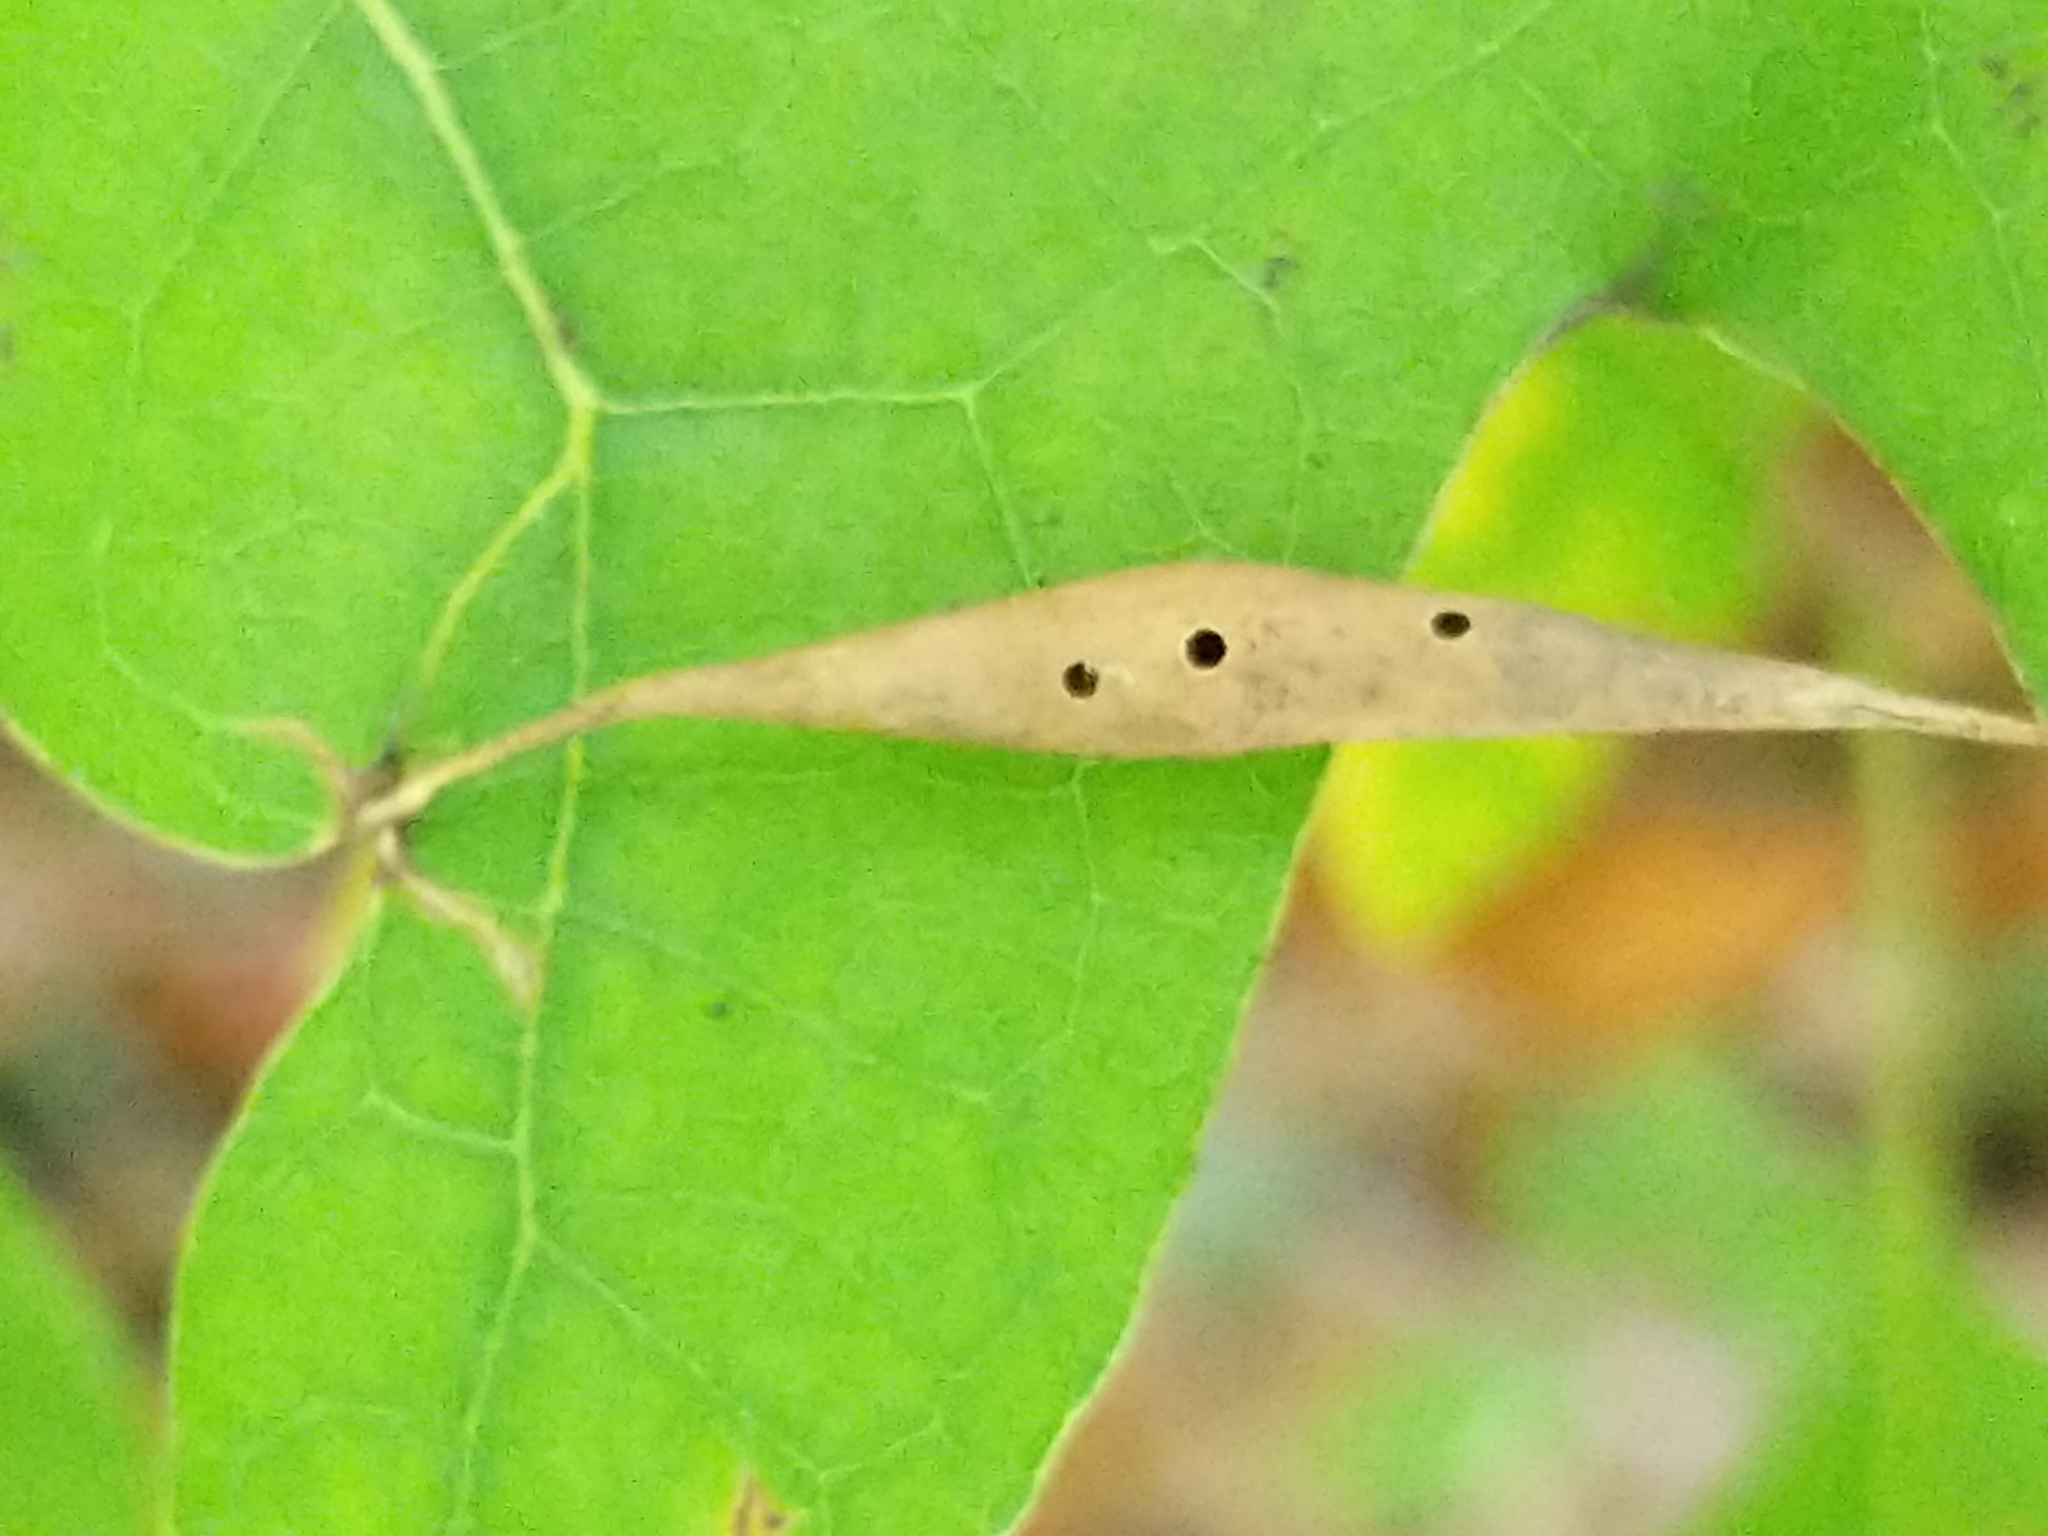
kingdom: Animalia
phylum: Arthropoda
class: Insecta
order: Hymenoptera
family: Cynipidae
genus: Amphibolips
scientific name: Amphibolips
